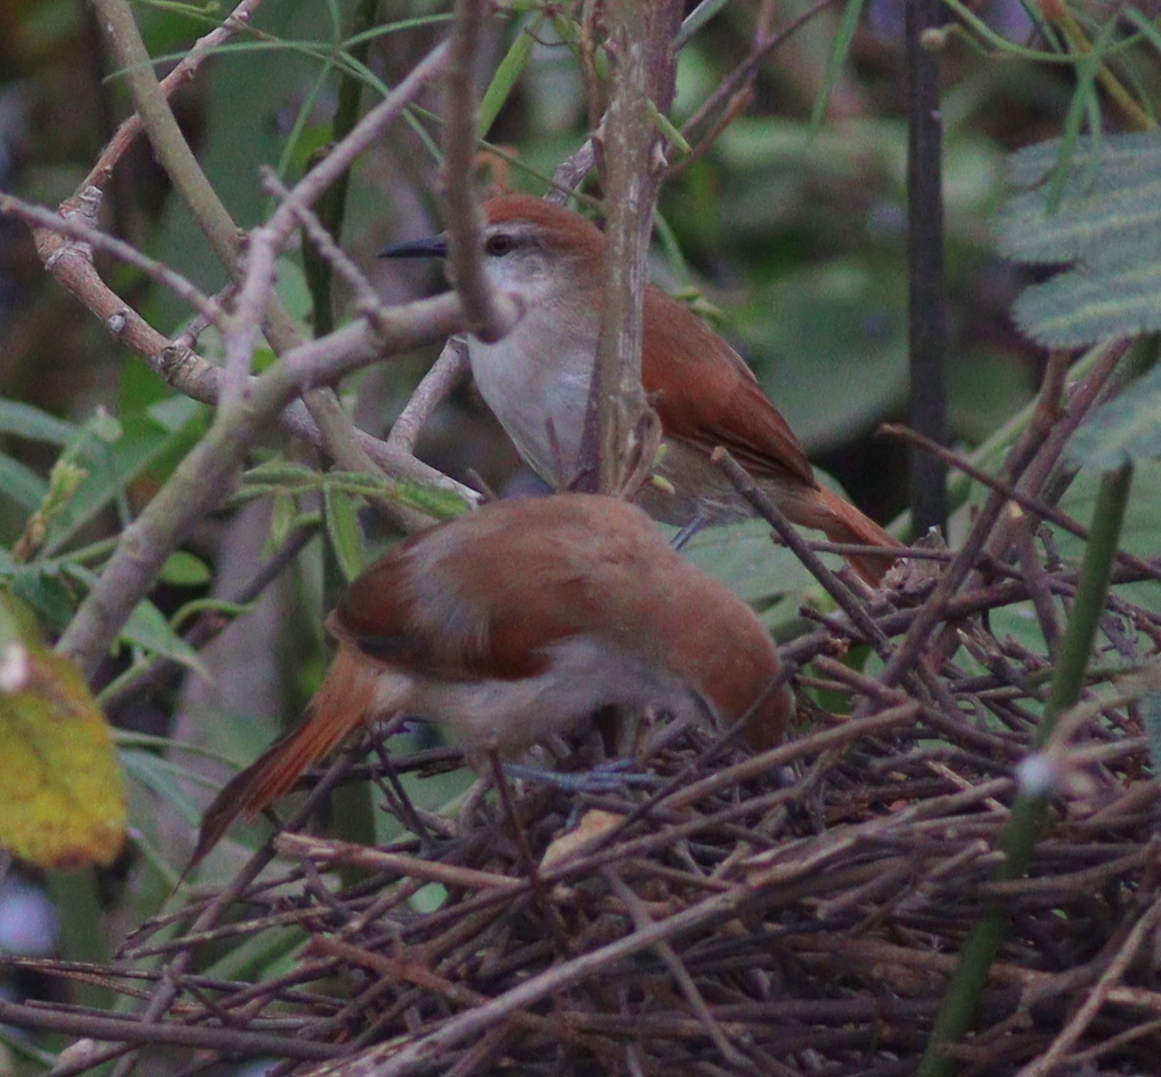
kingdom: Animalia
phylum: Chordata
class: Aves
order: Passeriformes
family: Furnariidae
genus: Certhiaxis
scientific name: Certhiaxis cinnamomeus
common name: Yellow-chinned spinetail
